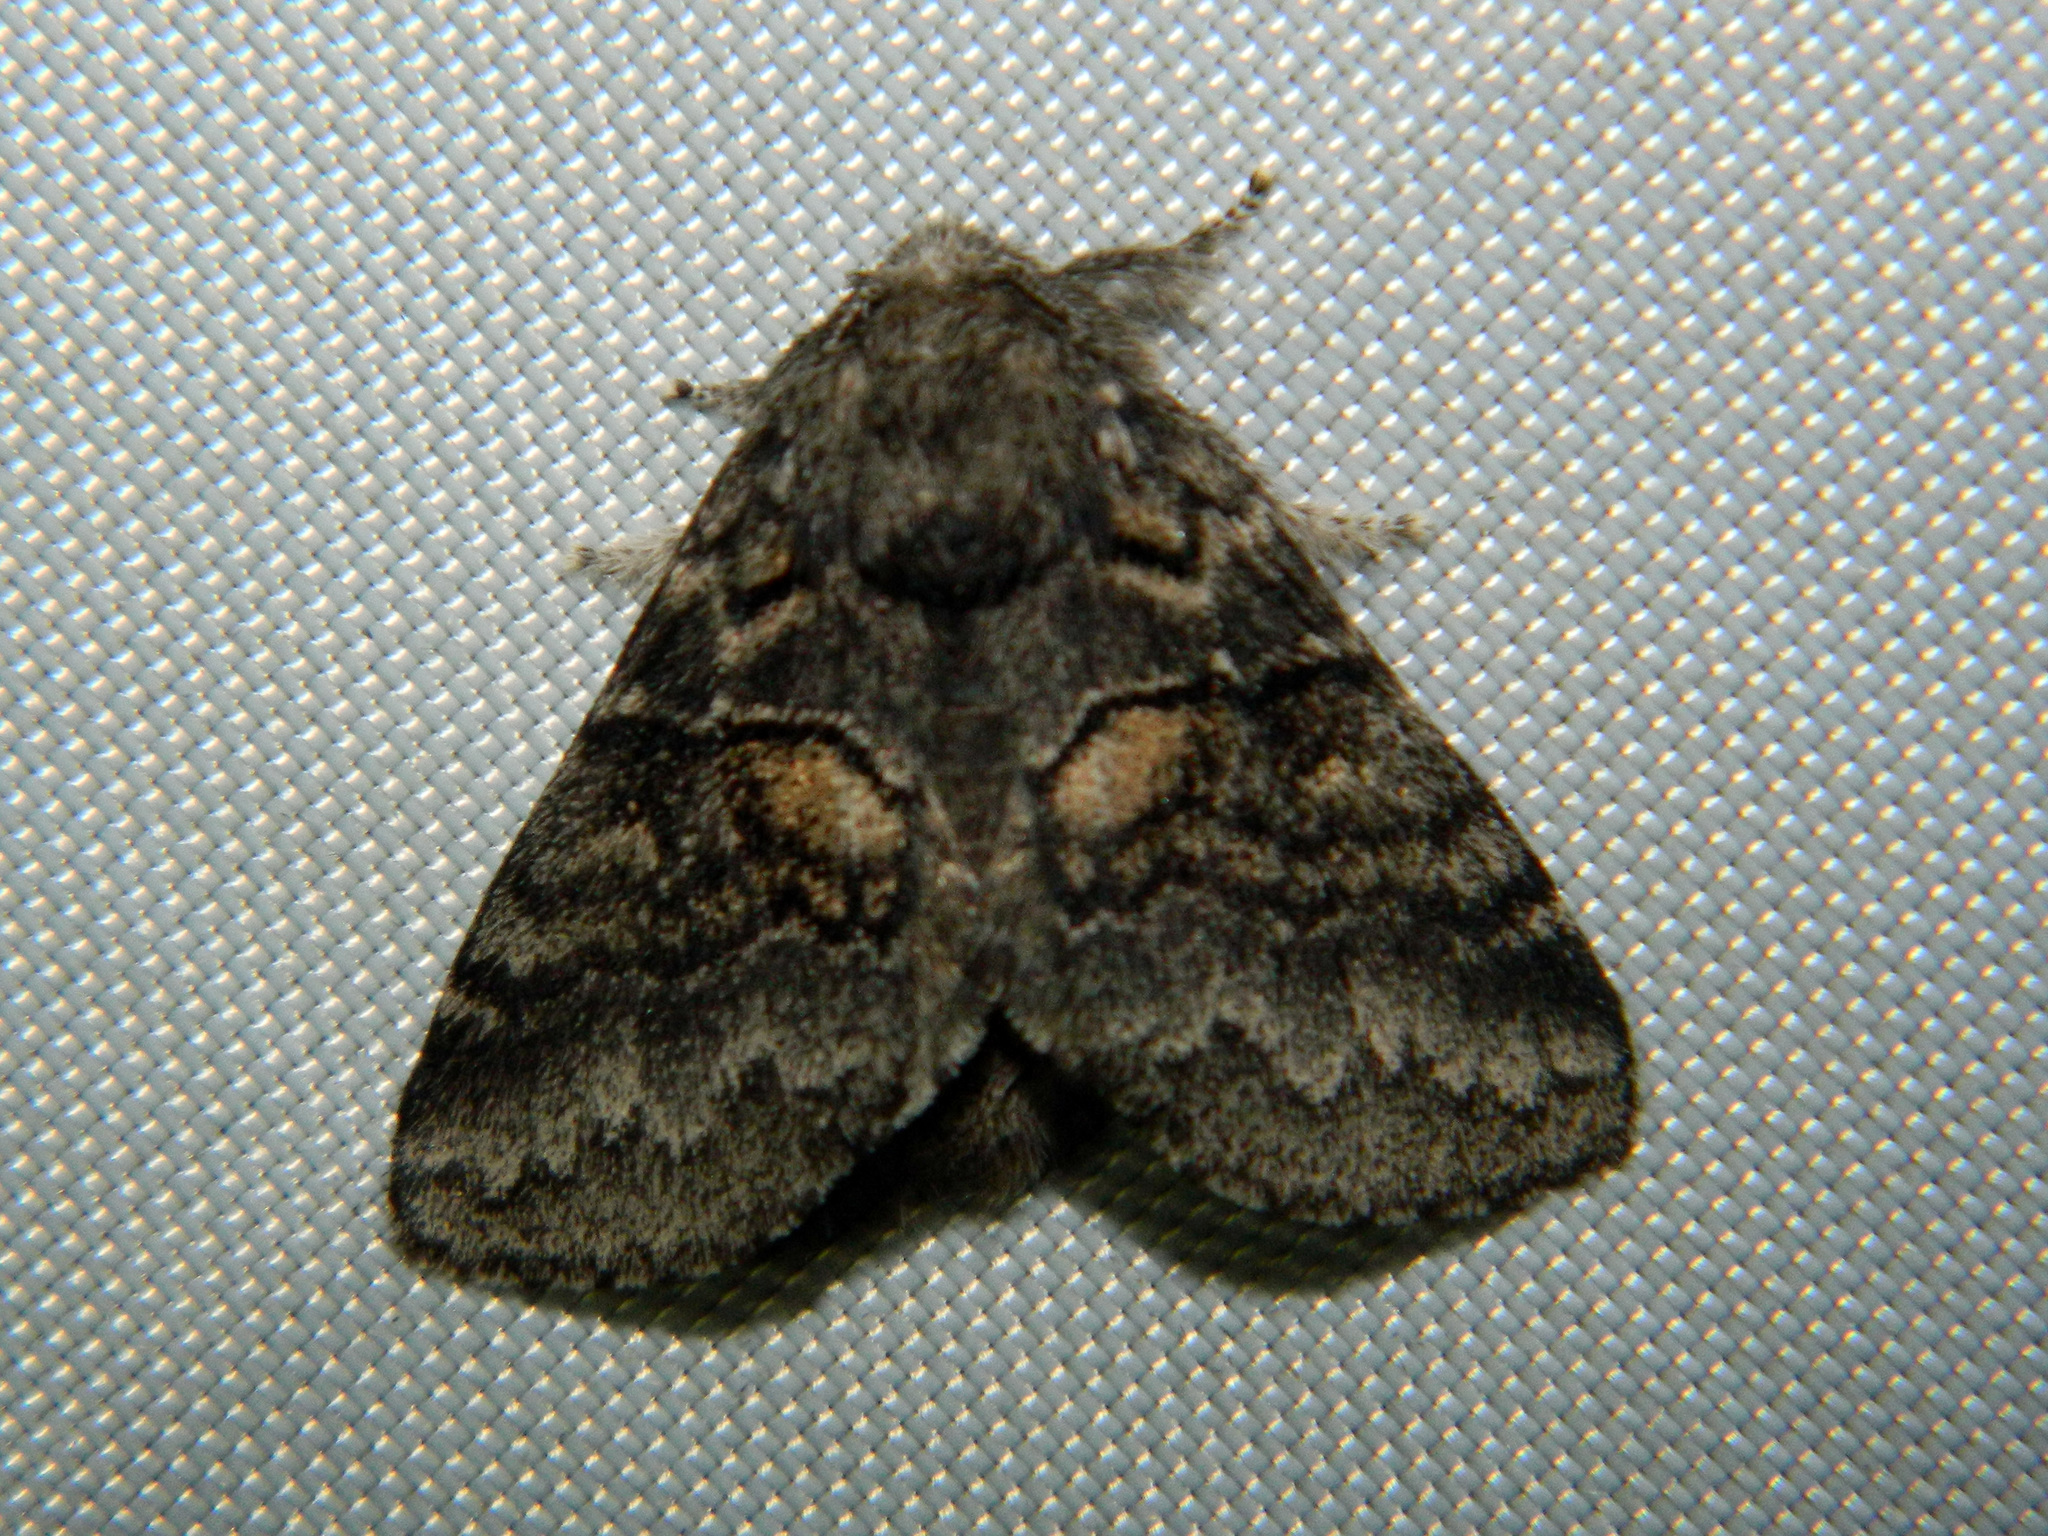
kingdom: Animalia
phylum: Arthropoda
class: Insecta
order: Lepidoptera
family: Notodontidae
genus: Gluphisia
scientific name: Gluphisia septentrionis
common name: Common gluphisia
